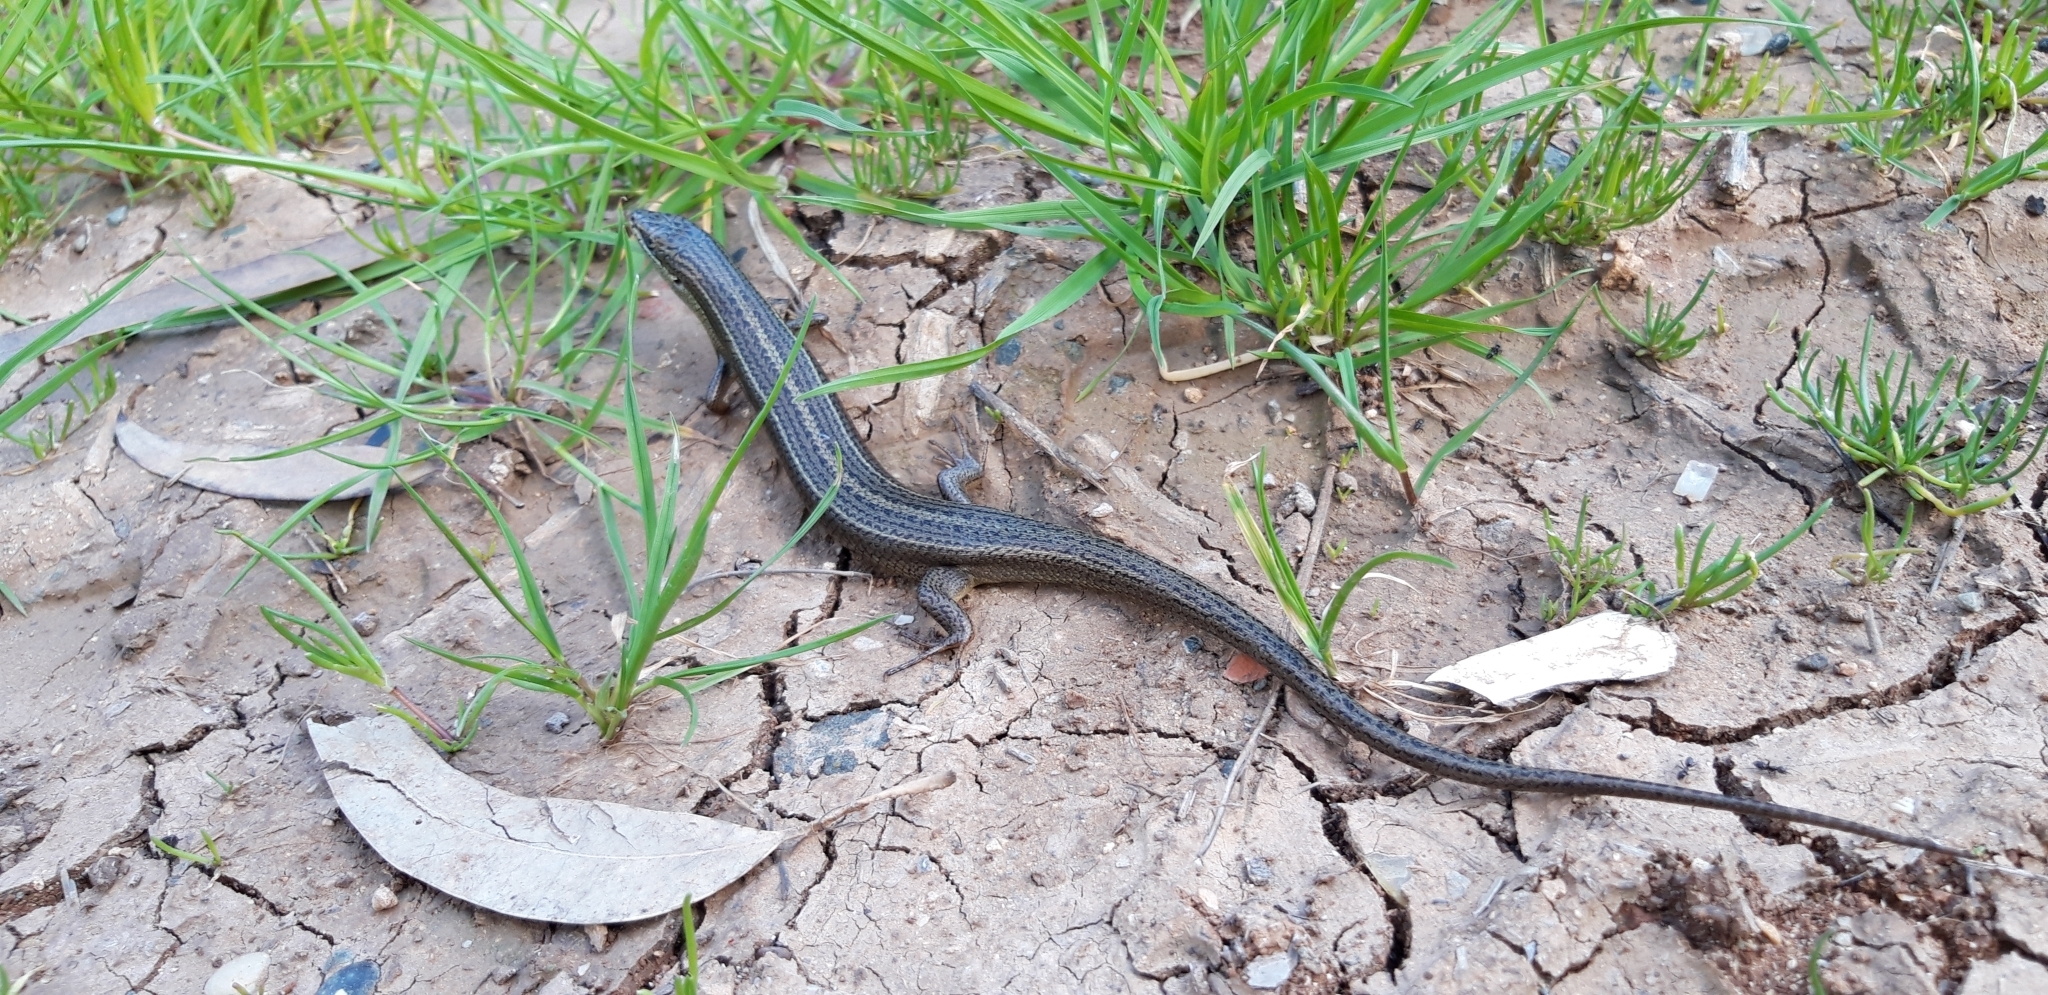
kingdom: Animalia
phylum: Chordata
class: Squamata
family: Scincidae
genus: Heremites
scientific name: Heremites vittatus
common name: Bridled mabuya
